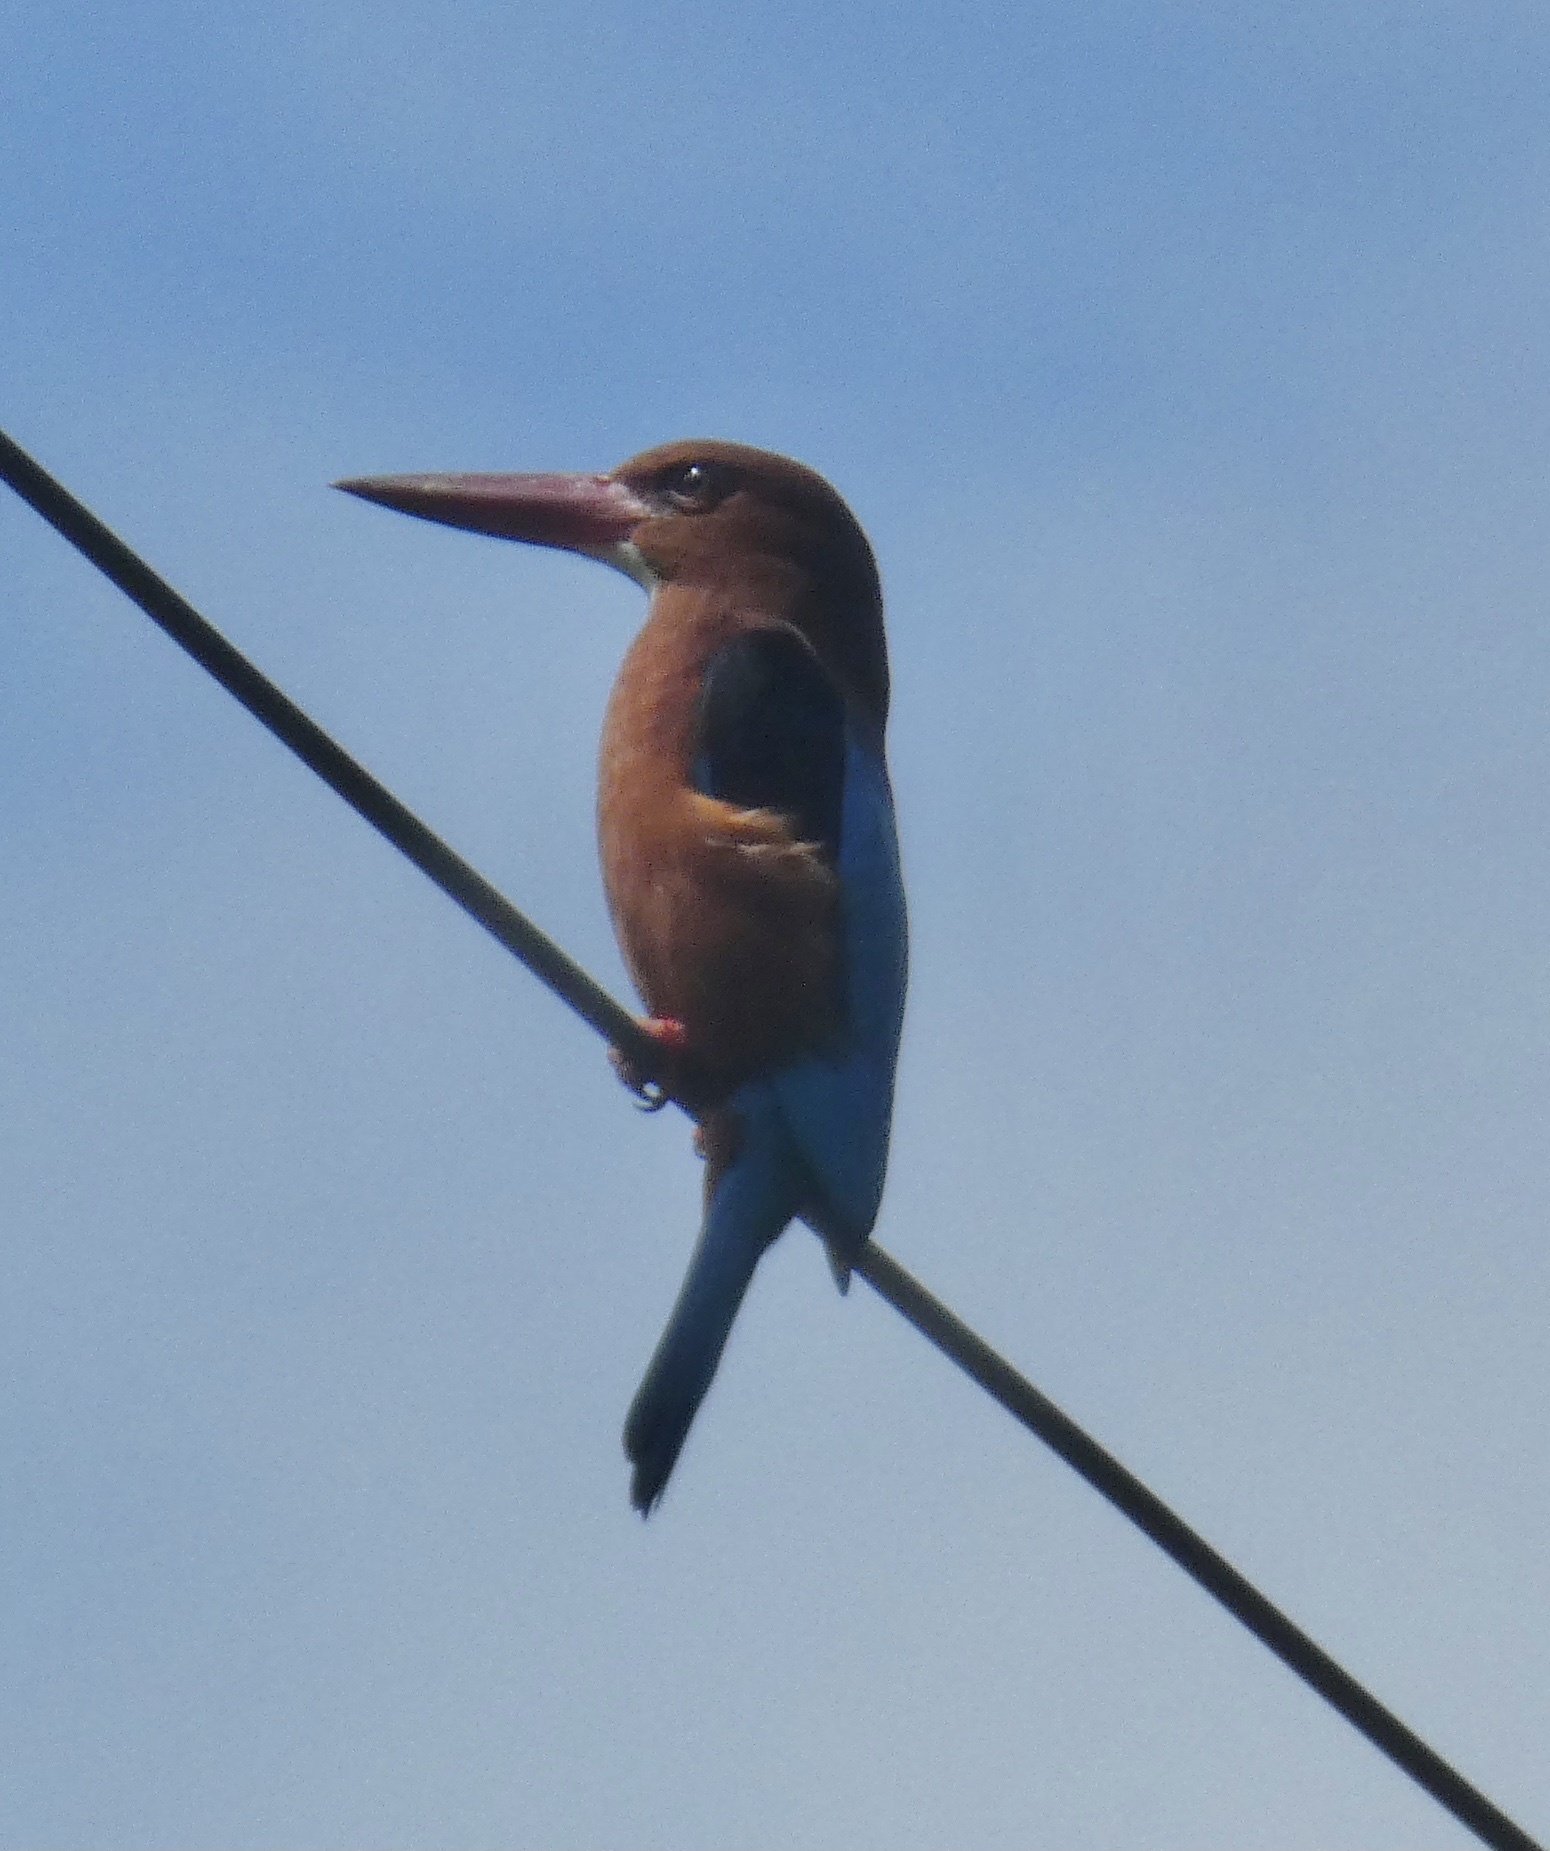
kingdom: Animalia
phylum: Chordata
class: Aves
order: Coraciiformes
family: Alcedinidae
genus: Halcyon
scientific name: Halcyon gularis
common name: Brown-breasted kingfisher
